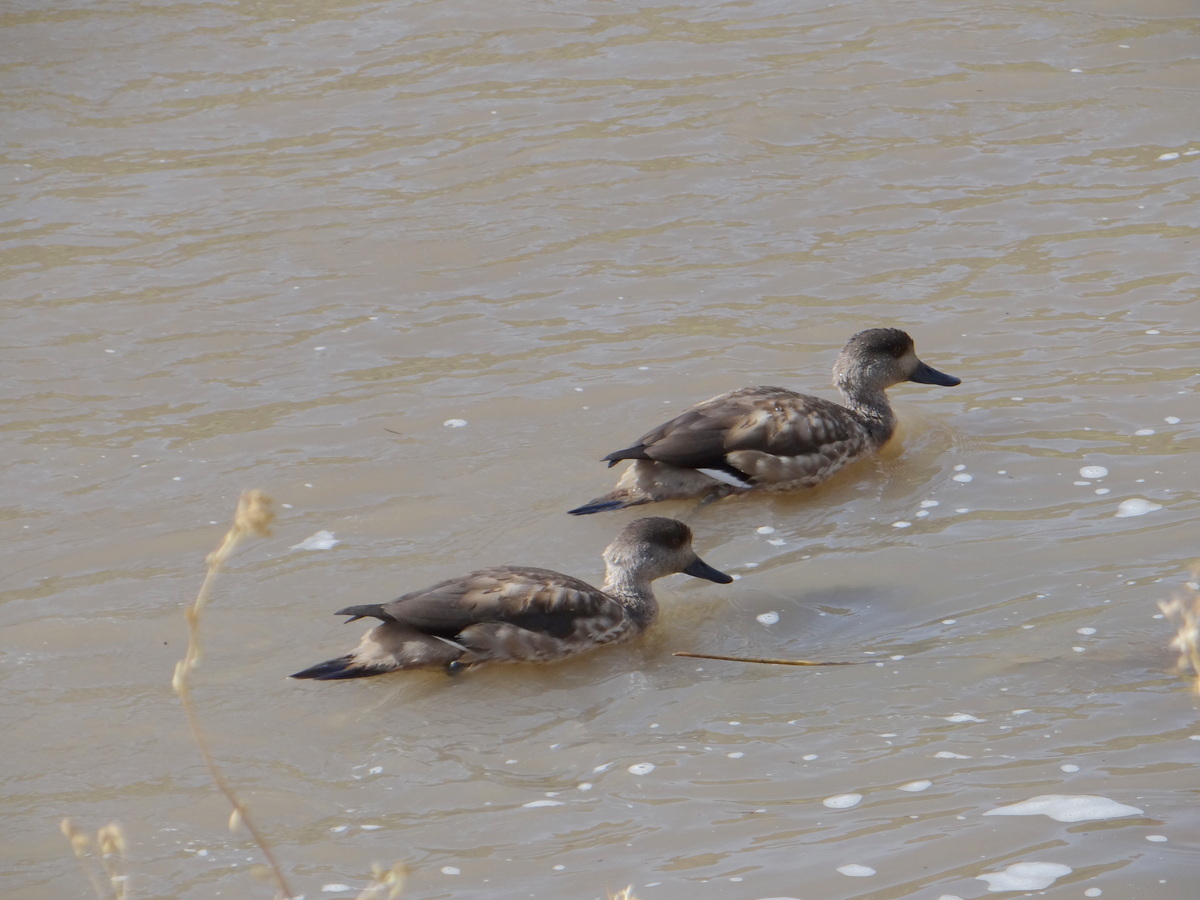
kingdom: Animalia
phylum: Chordata
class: Aves
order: Anseriformes
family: Anatidae
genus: Lophonetta
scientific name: Lophonetta specularioides
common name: Crested duck
